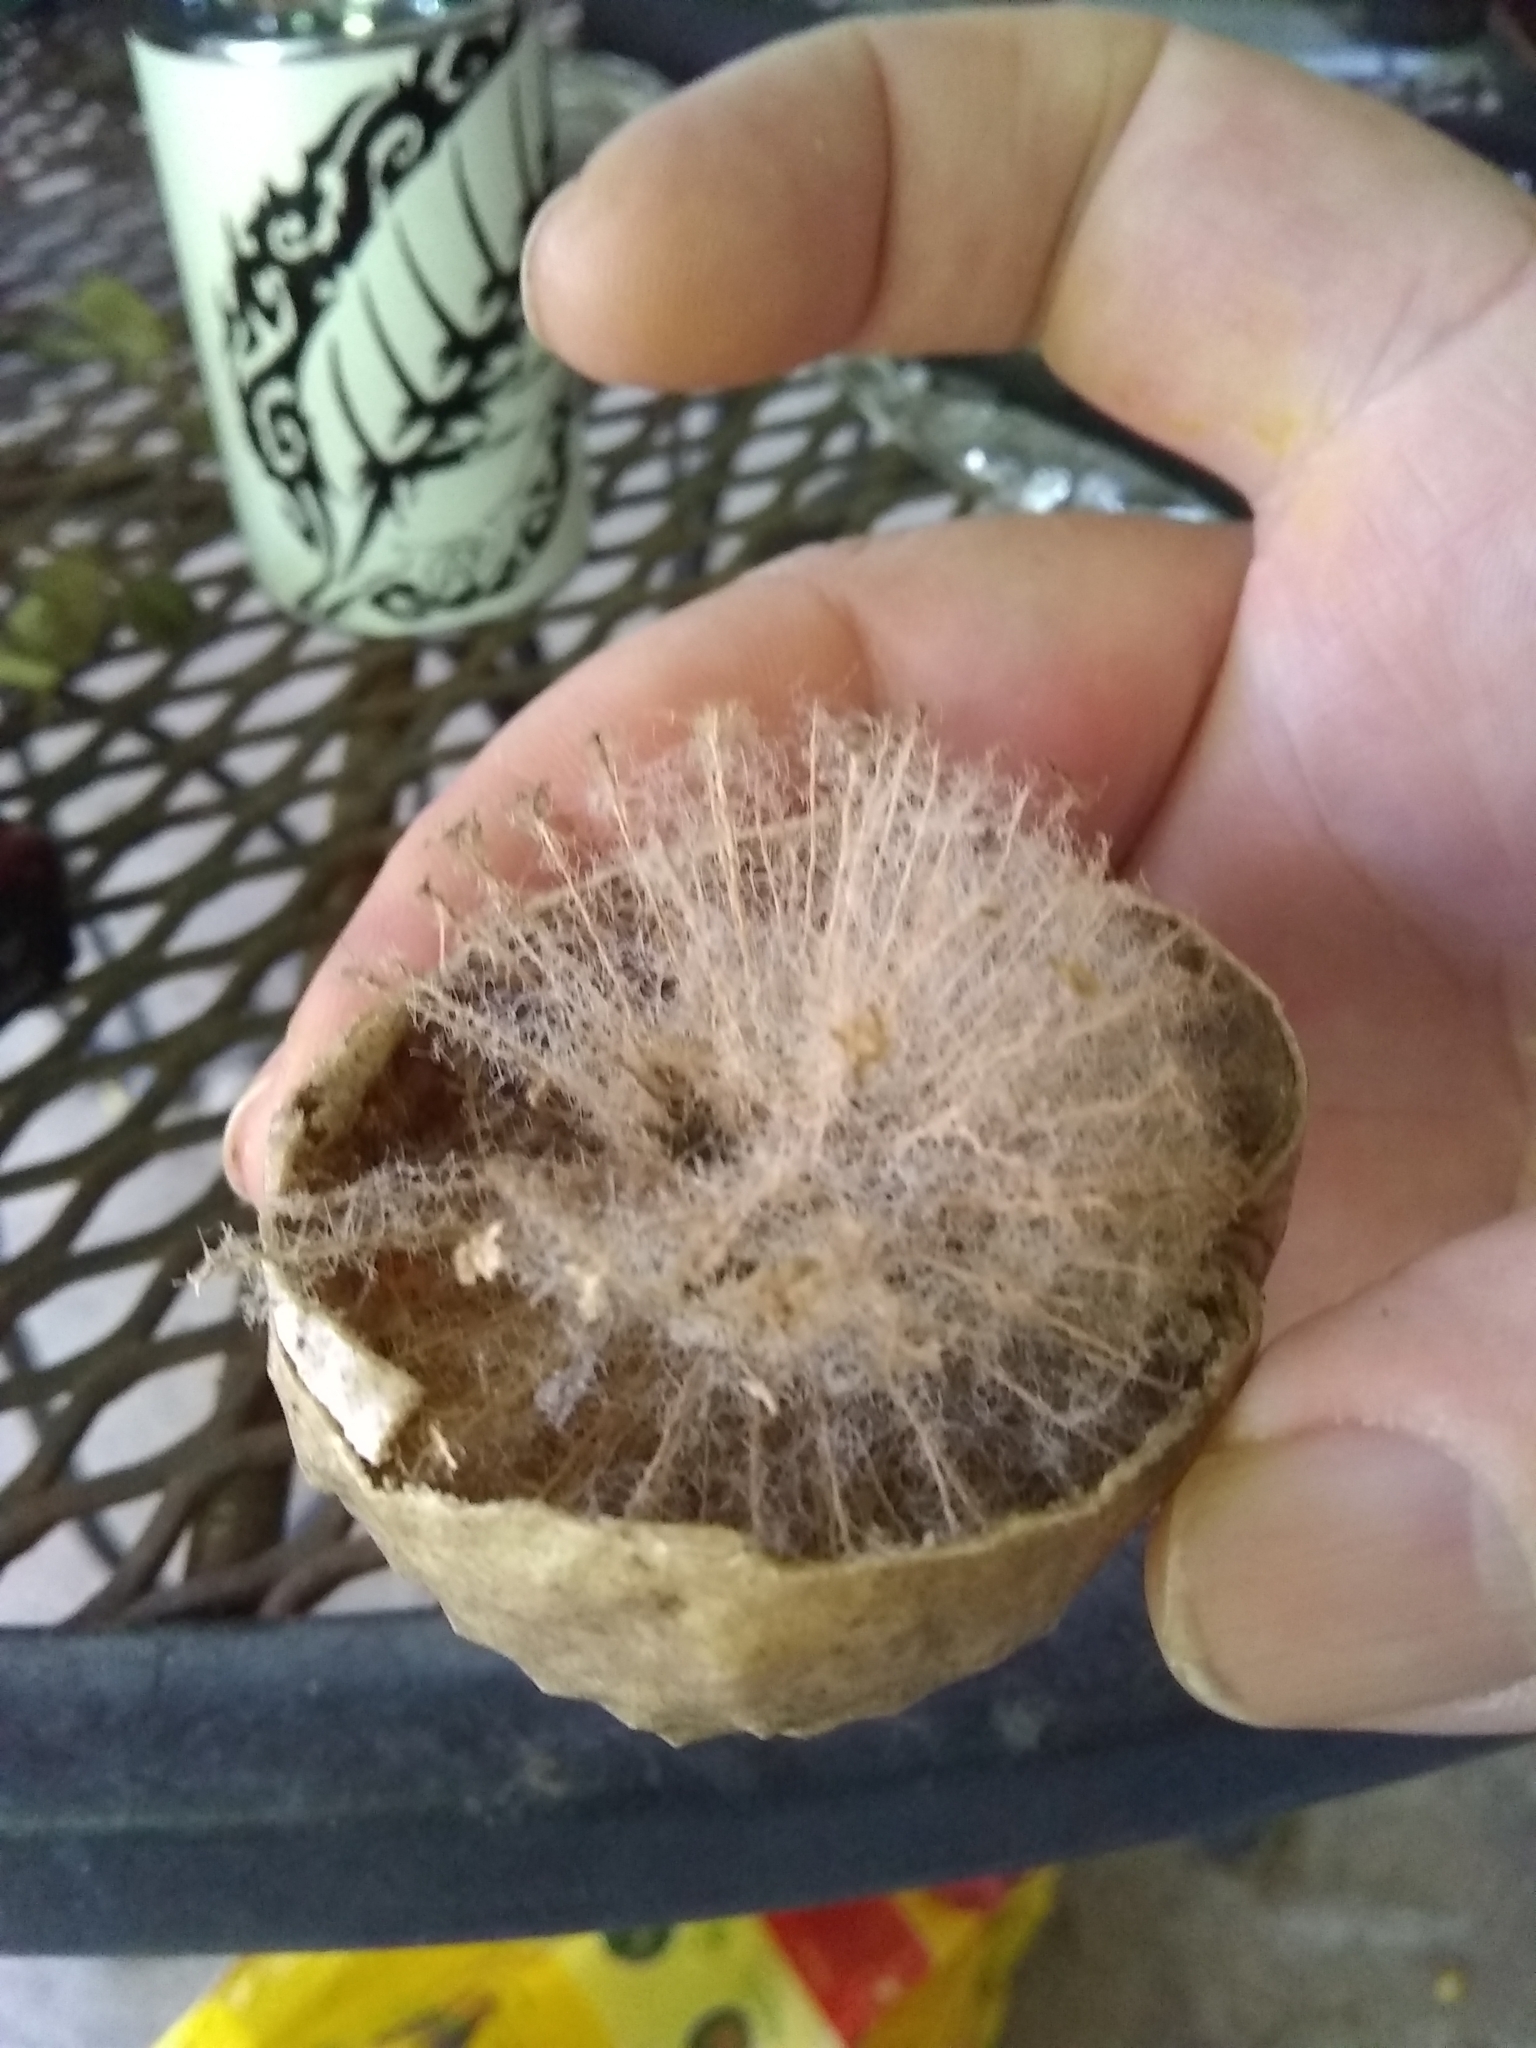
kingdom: Animalia
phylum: Arthropoda
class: Insecta
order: Hymenoptera
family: Cynipidae
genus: Amphibolips
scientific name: Amphibolips
